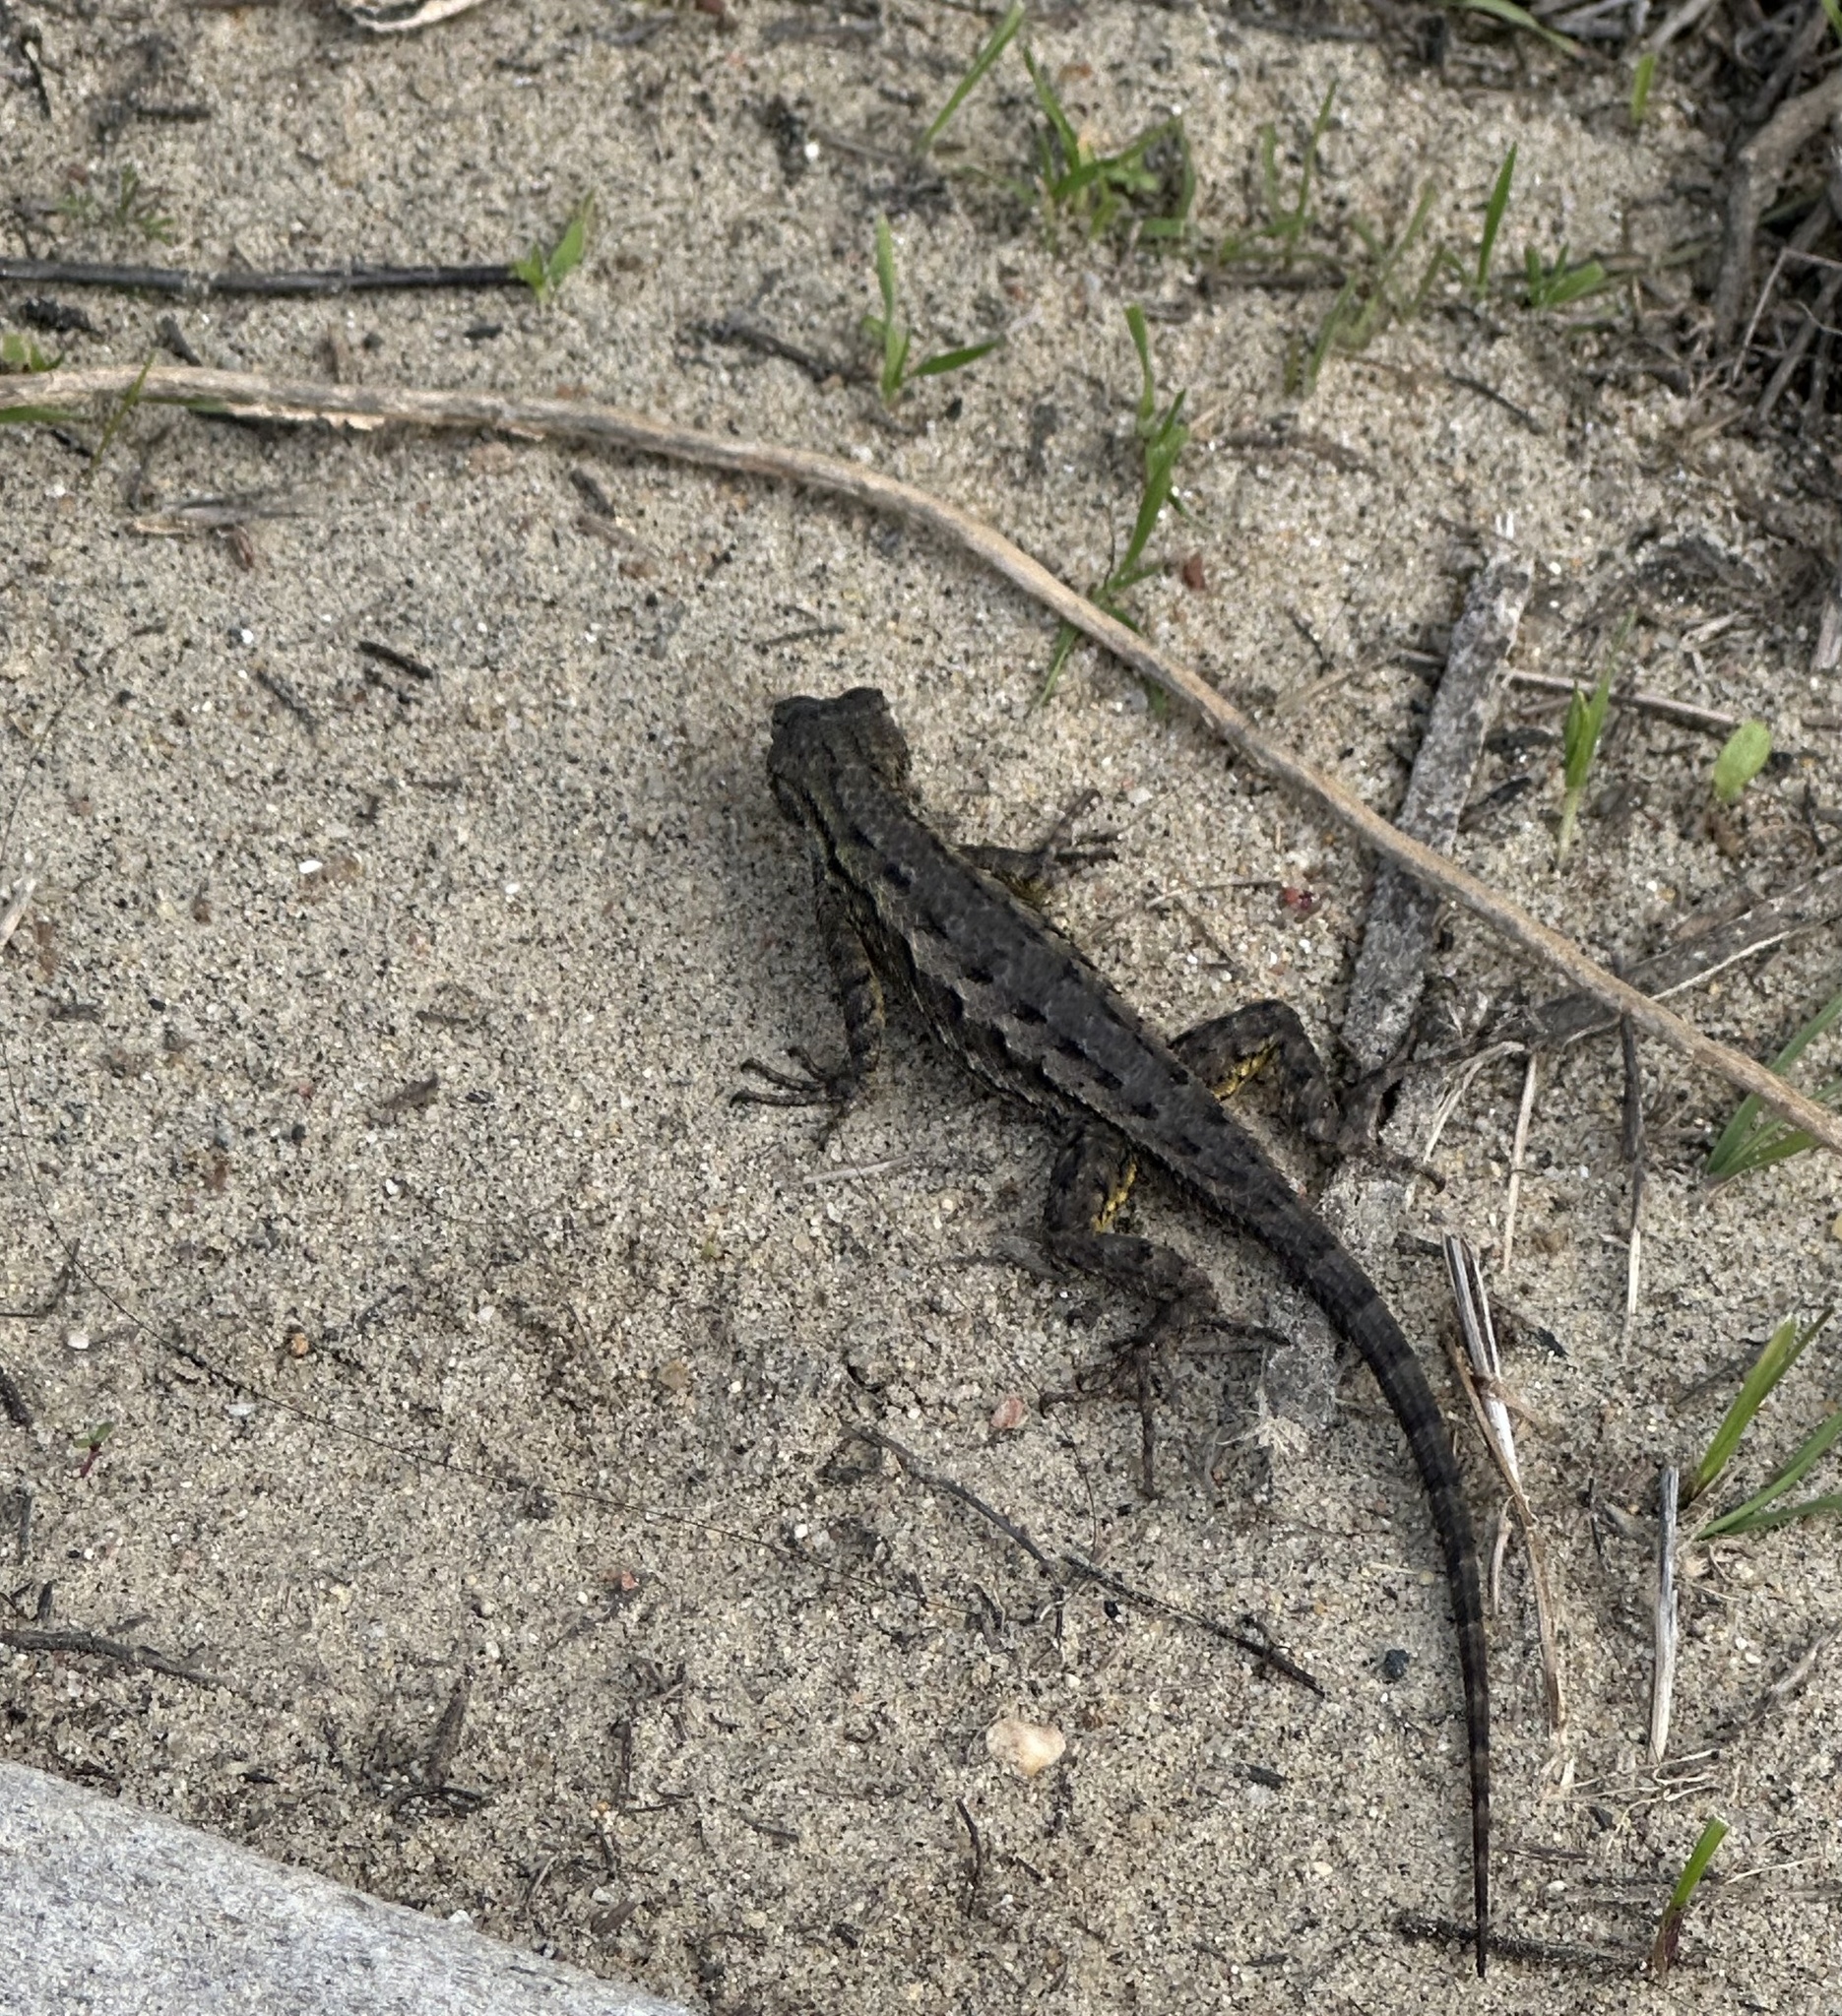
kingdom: Animalia
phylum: Chordata
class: Squamata
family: Phrynosomatidae
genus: Sceloporus
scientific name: Sceloporus occidentalis
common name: Western fence lizard
